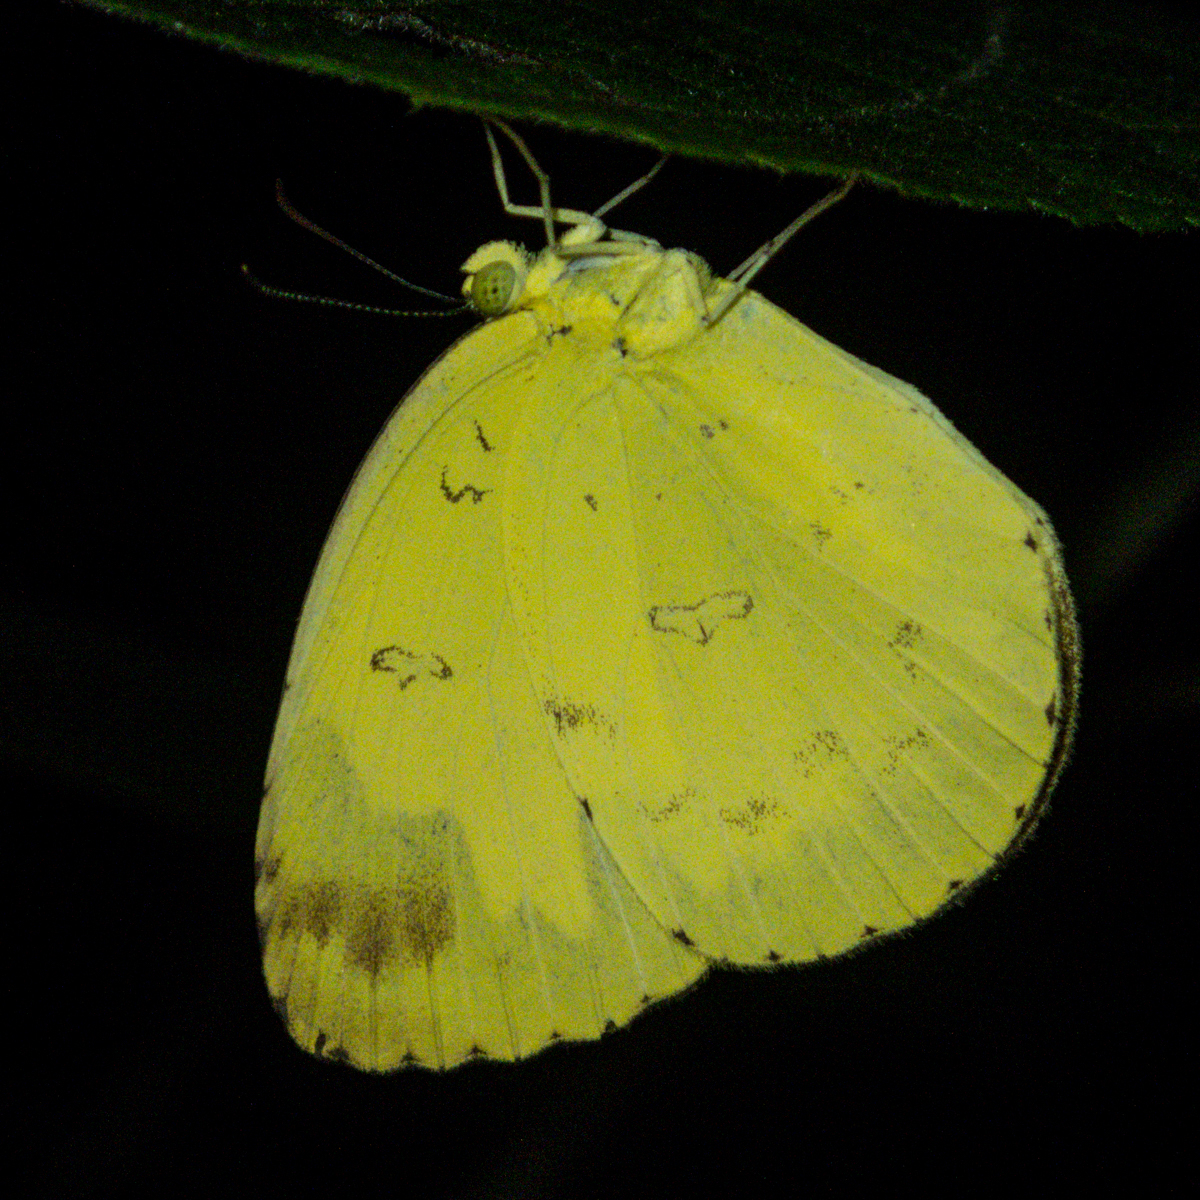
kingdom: Animalia
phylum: Arthropoda
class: Insecta
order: Lepidoptera
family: Pieridae
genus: Eurema
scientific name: Eurema simulatrix
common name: Hill grass yellow
